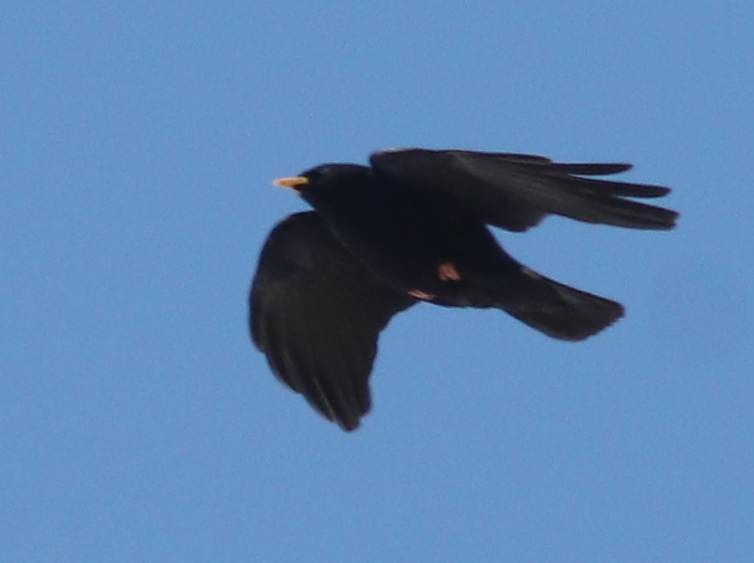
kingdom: Animalia
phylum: Chordata
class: Aves
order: Passeriformes
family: Corvidae
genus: Pyrrhocorax
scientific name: Pyrrhocorax graculus
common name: Alpine chough
